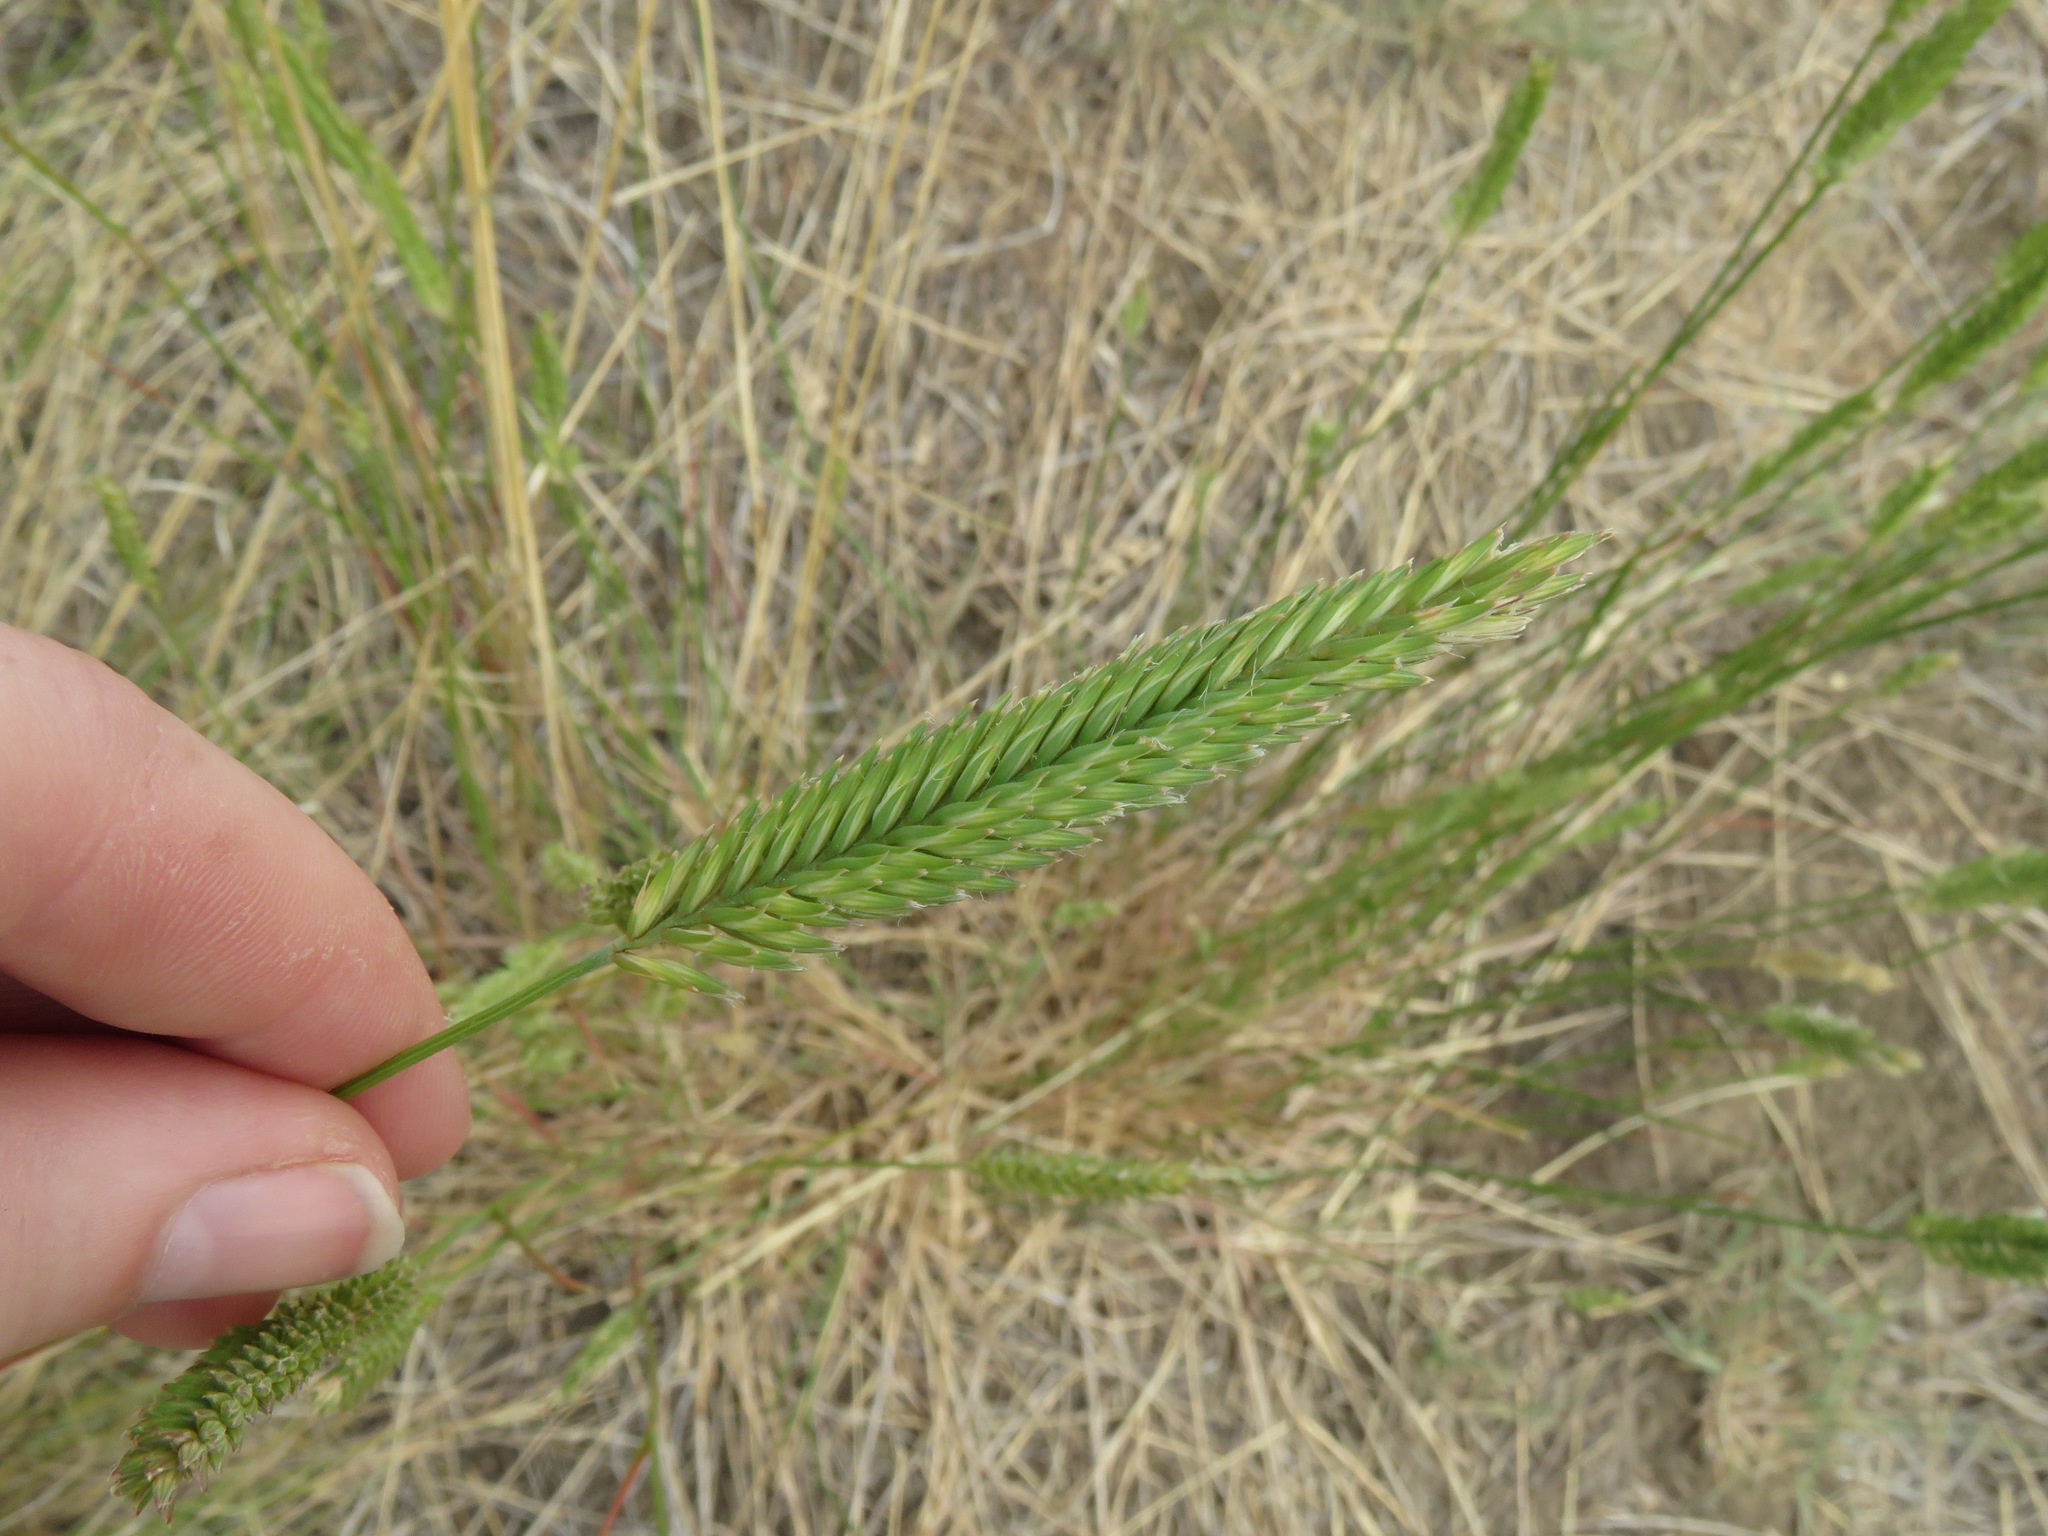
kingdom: Plantae
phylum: Tracheophyta
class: Liliopsida
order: Poales
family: Poaceae
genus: Agropyron
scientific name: Agropyron cristatum
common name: Crested wheatgrass
